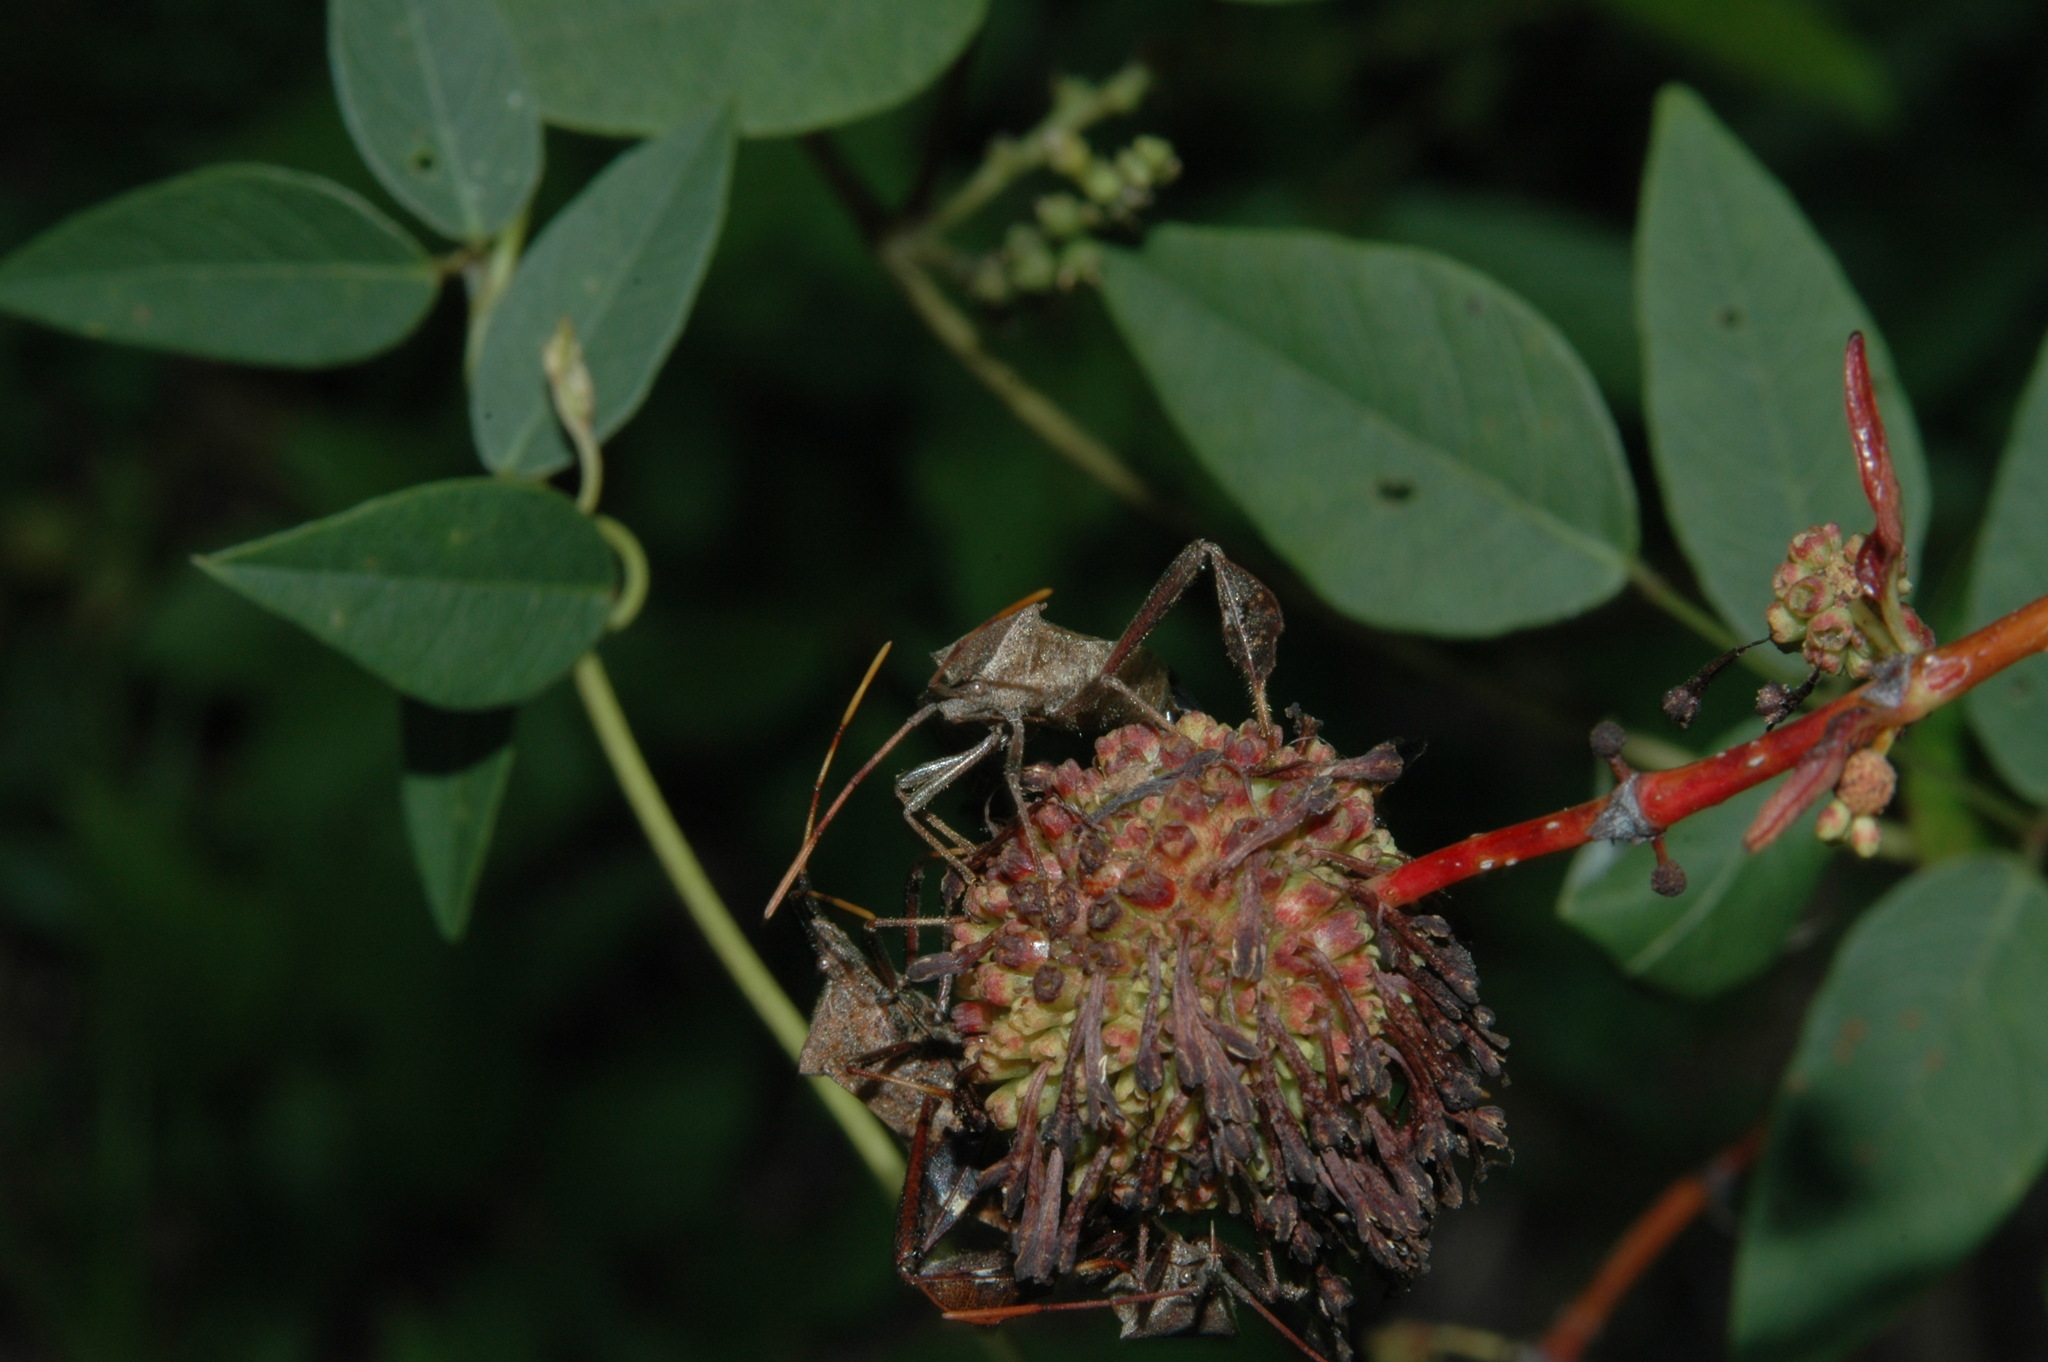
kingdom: Animalia
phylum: Arthropoda
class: Insecta
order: Hemiptera
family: Coreidae
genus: Leptoglossus
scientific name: Leptoglossus phyllopus
